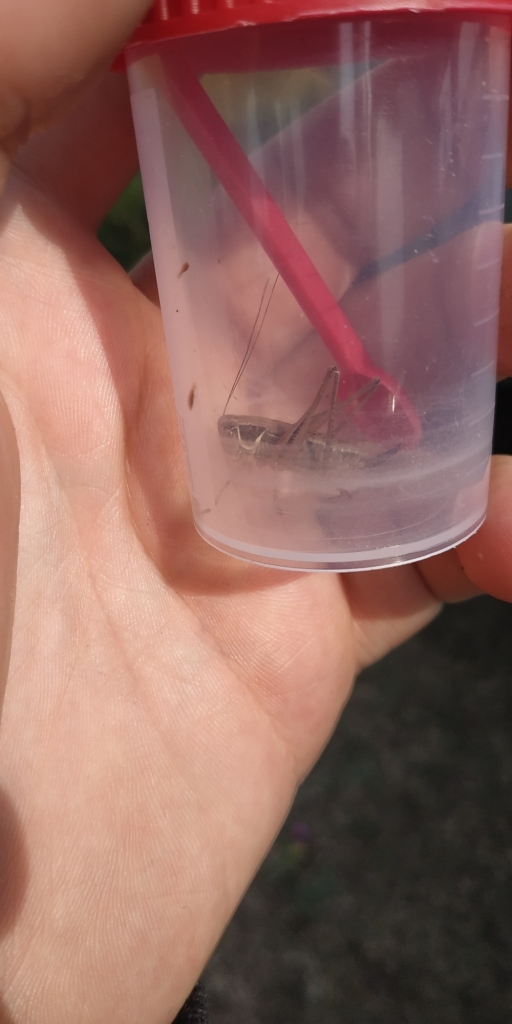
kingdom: Animalia
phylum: Arthropoda
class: Insecta
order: Orthoptera
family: Tettigoniidae
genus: Roeseliana
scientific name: Roeseliana roeselii
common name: Roesel's bush cricket
